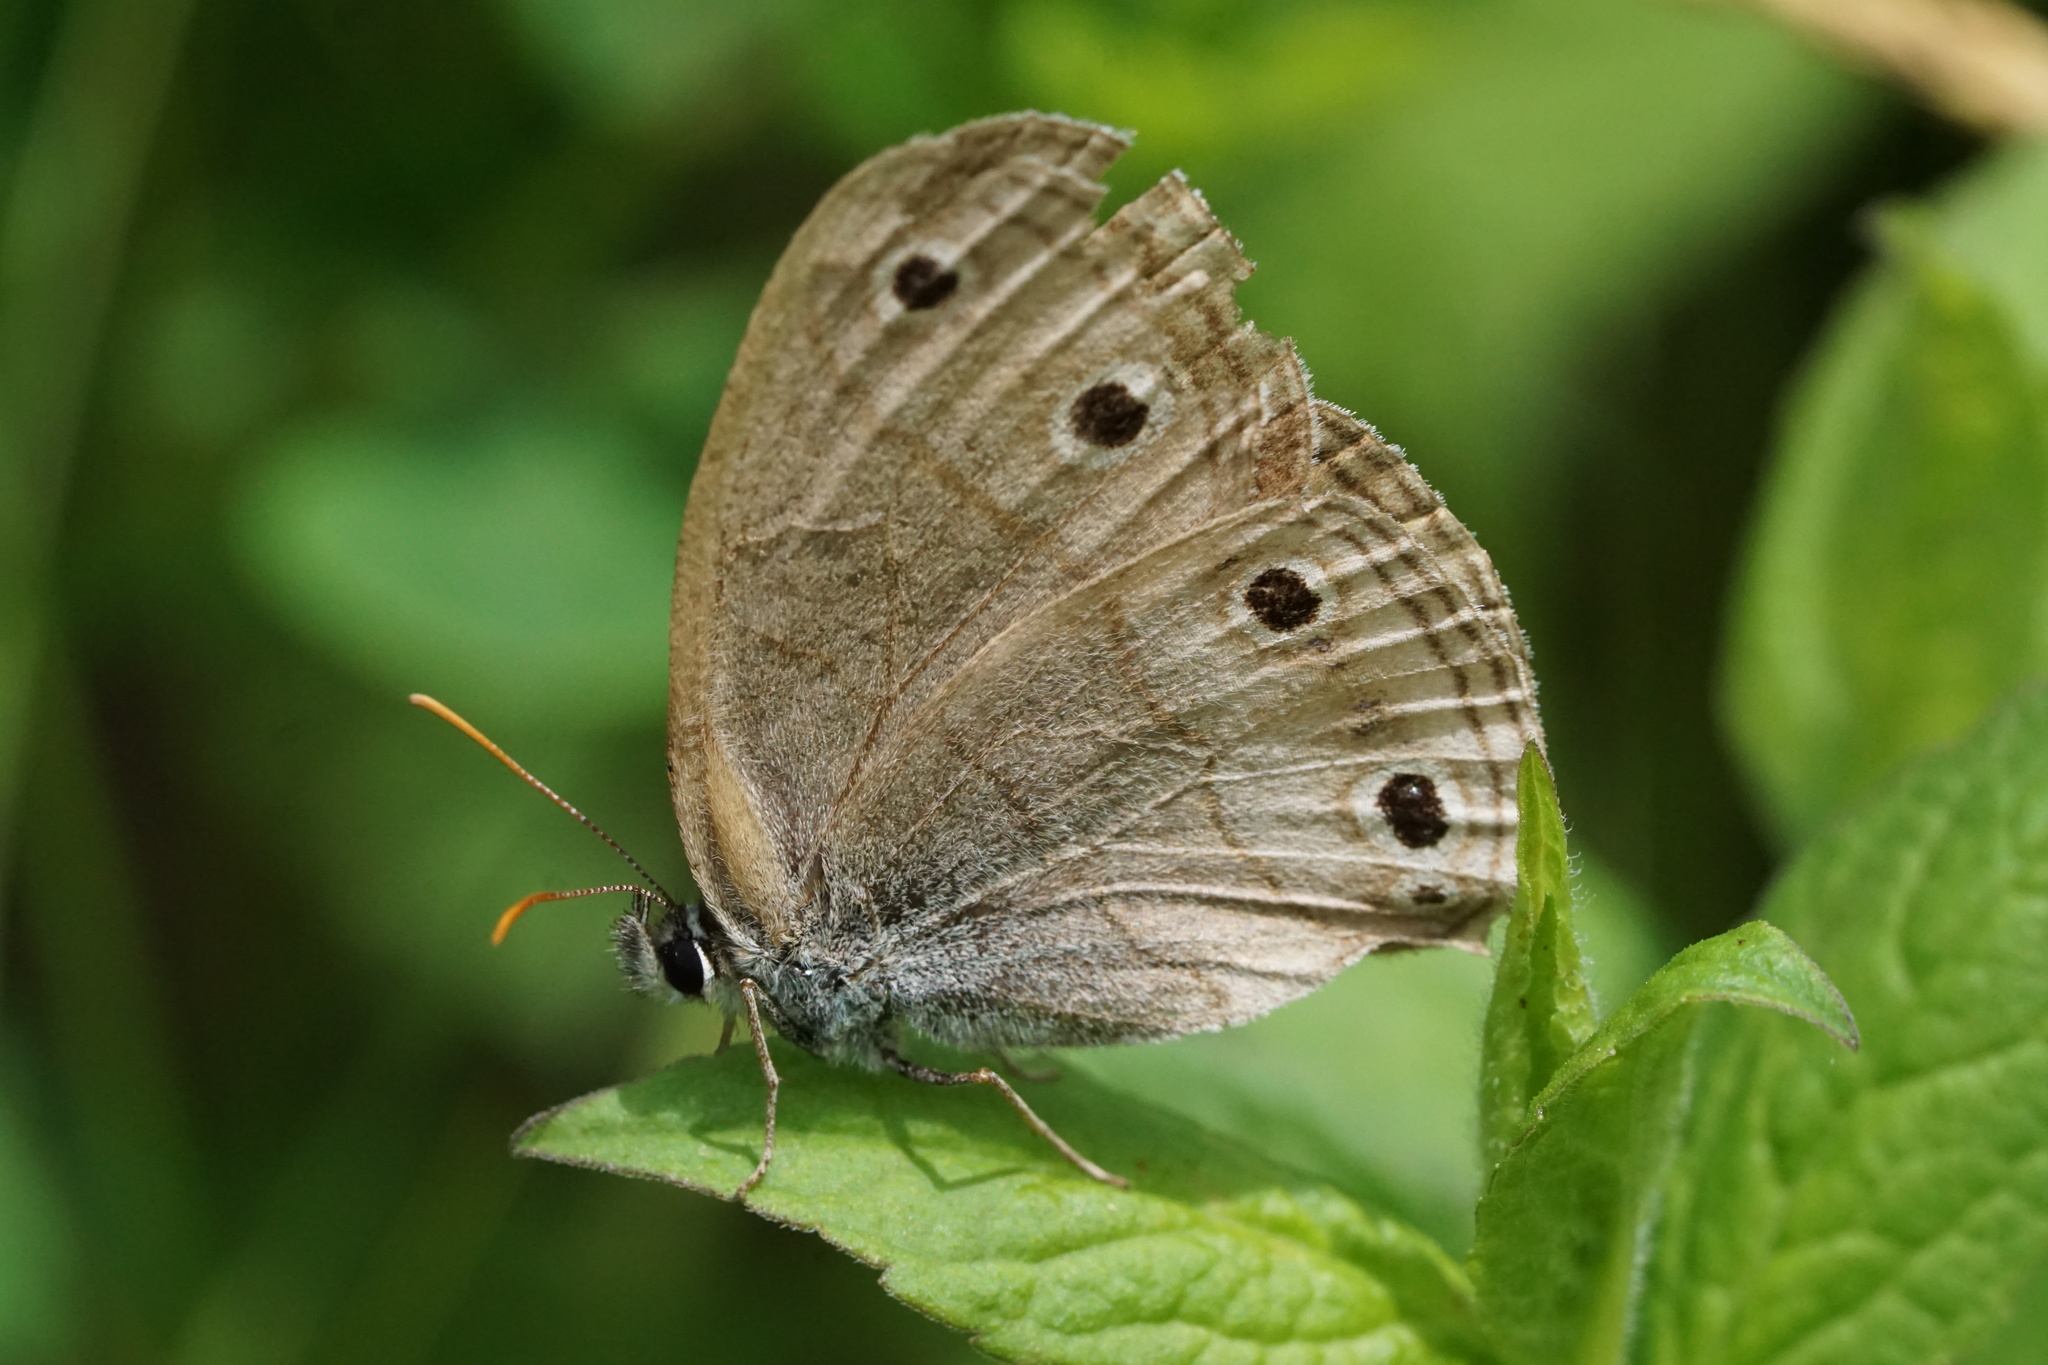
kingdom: Animalia
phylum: Arthropoda
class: Insecta
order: Lepidoptera
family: Nymphalidae
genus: Euptychia
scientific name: Euptychia cymela
